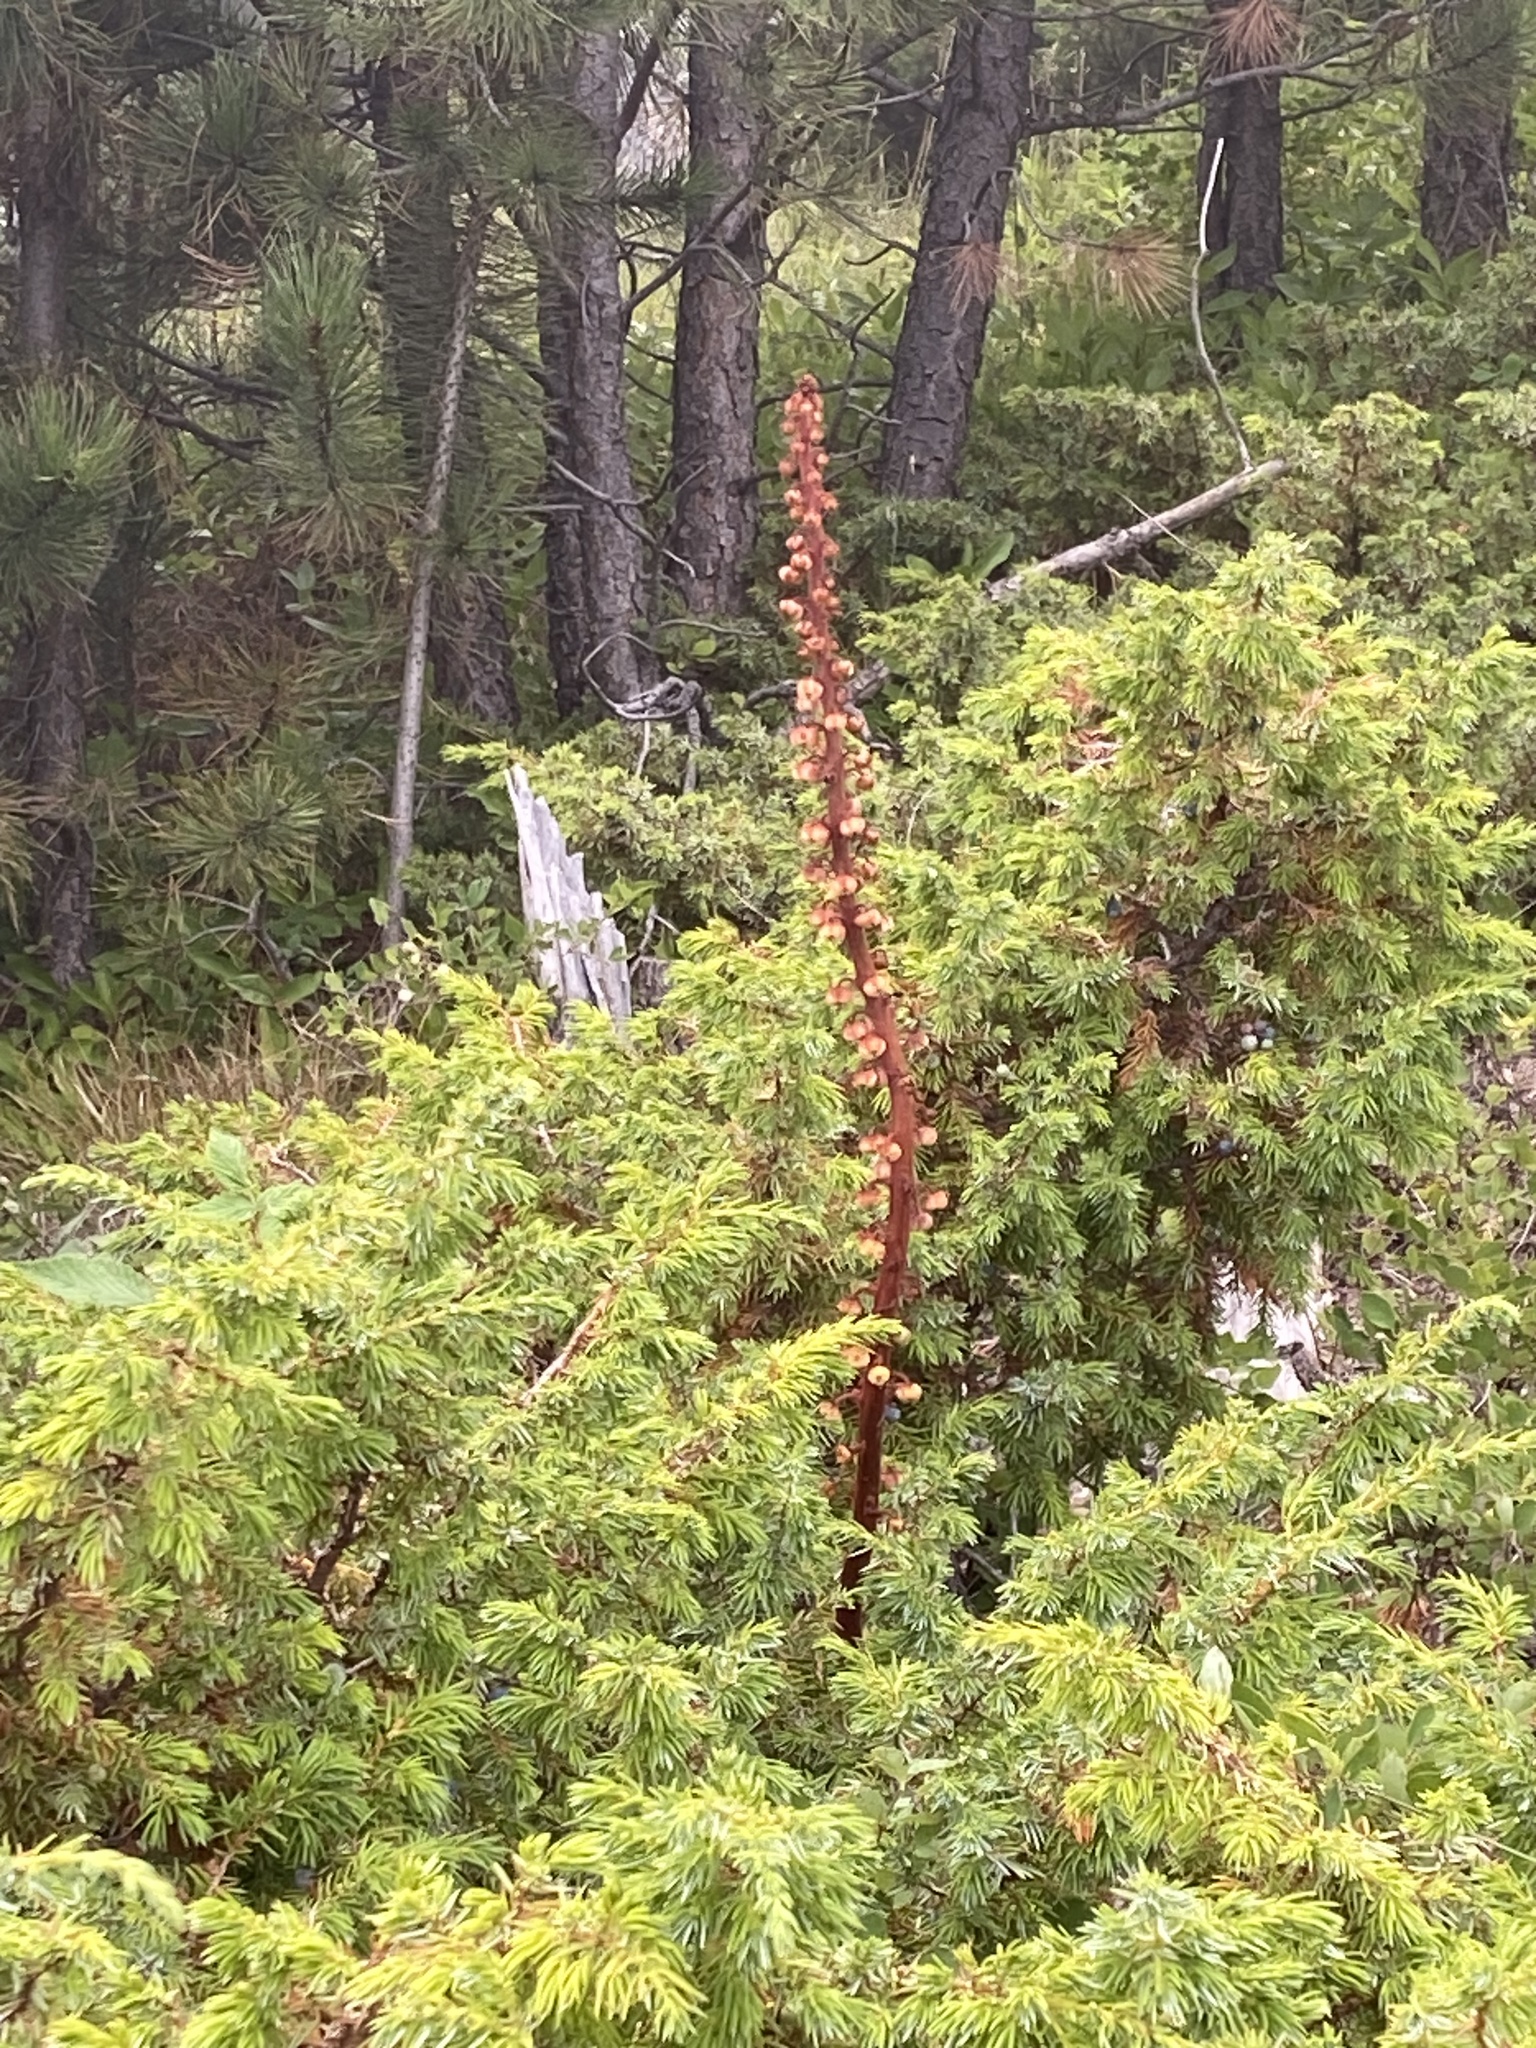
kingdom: Plantae
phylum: Tracheophyta
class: Magnoliopsida
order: Ericales
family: Ericaceae
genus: Pterospora
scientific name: Pterospora andromedea
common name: Giant bird's-nest
